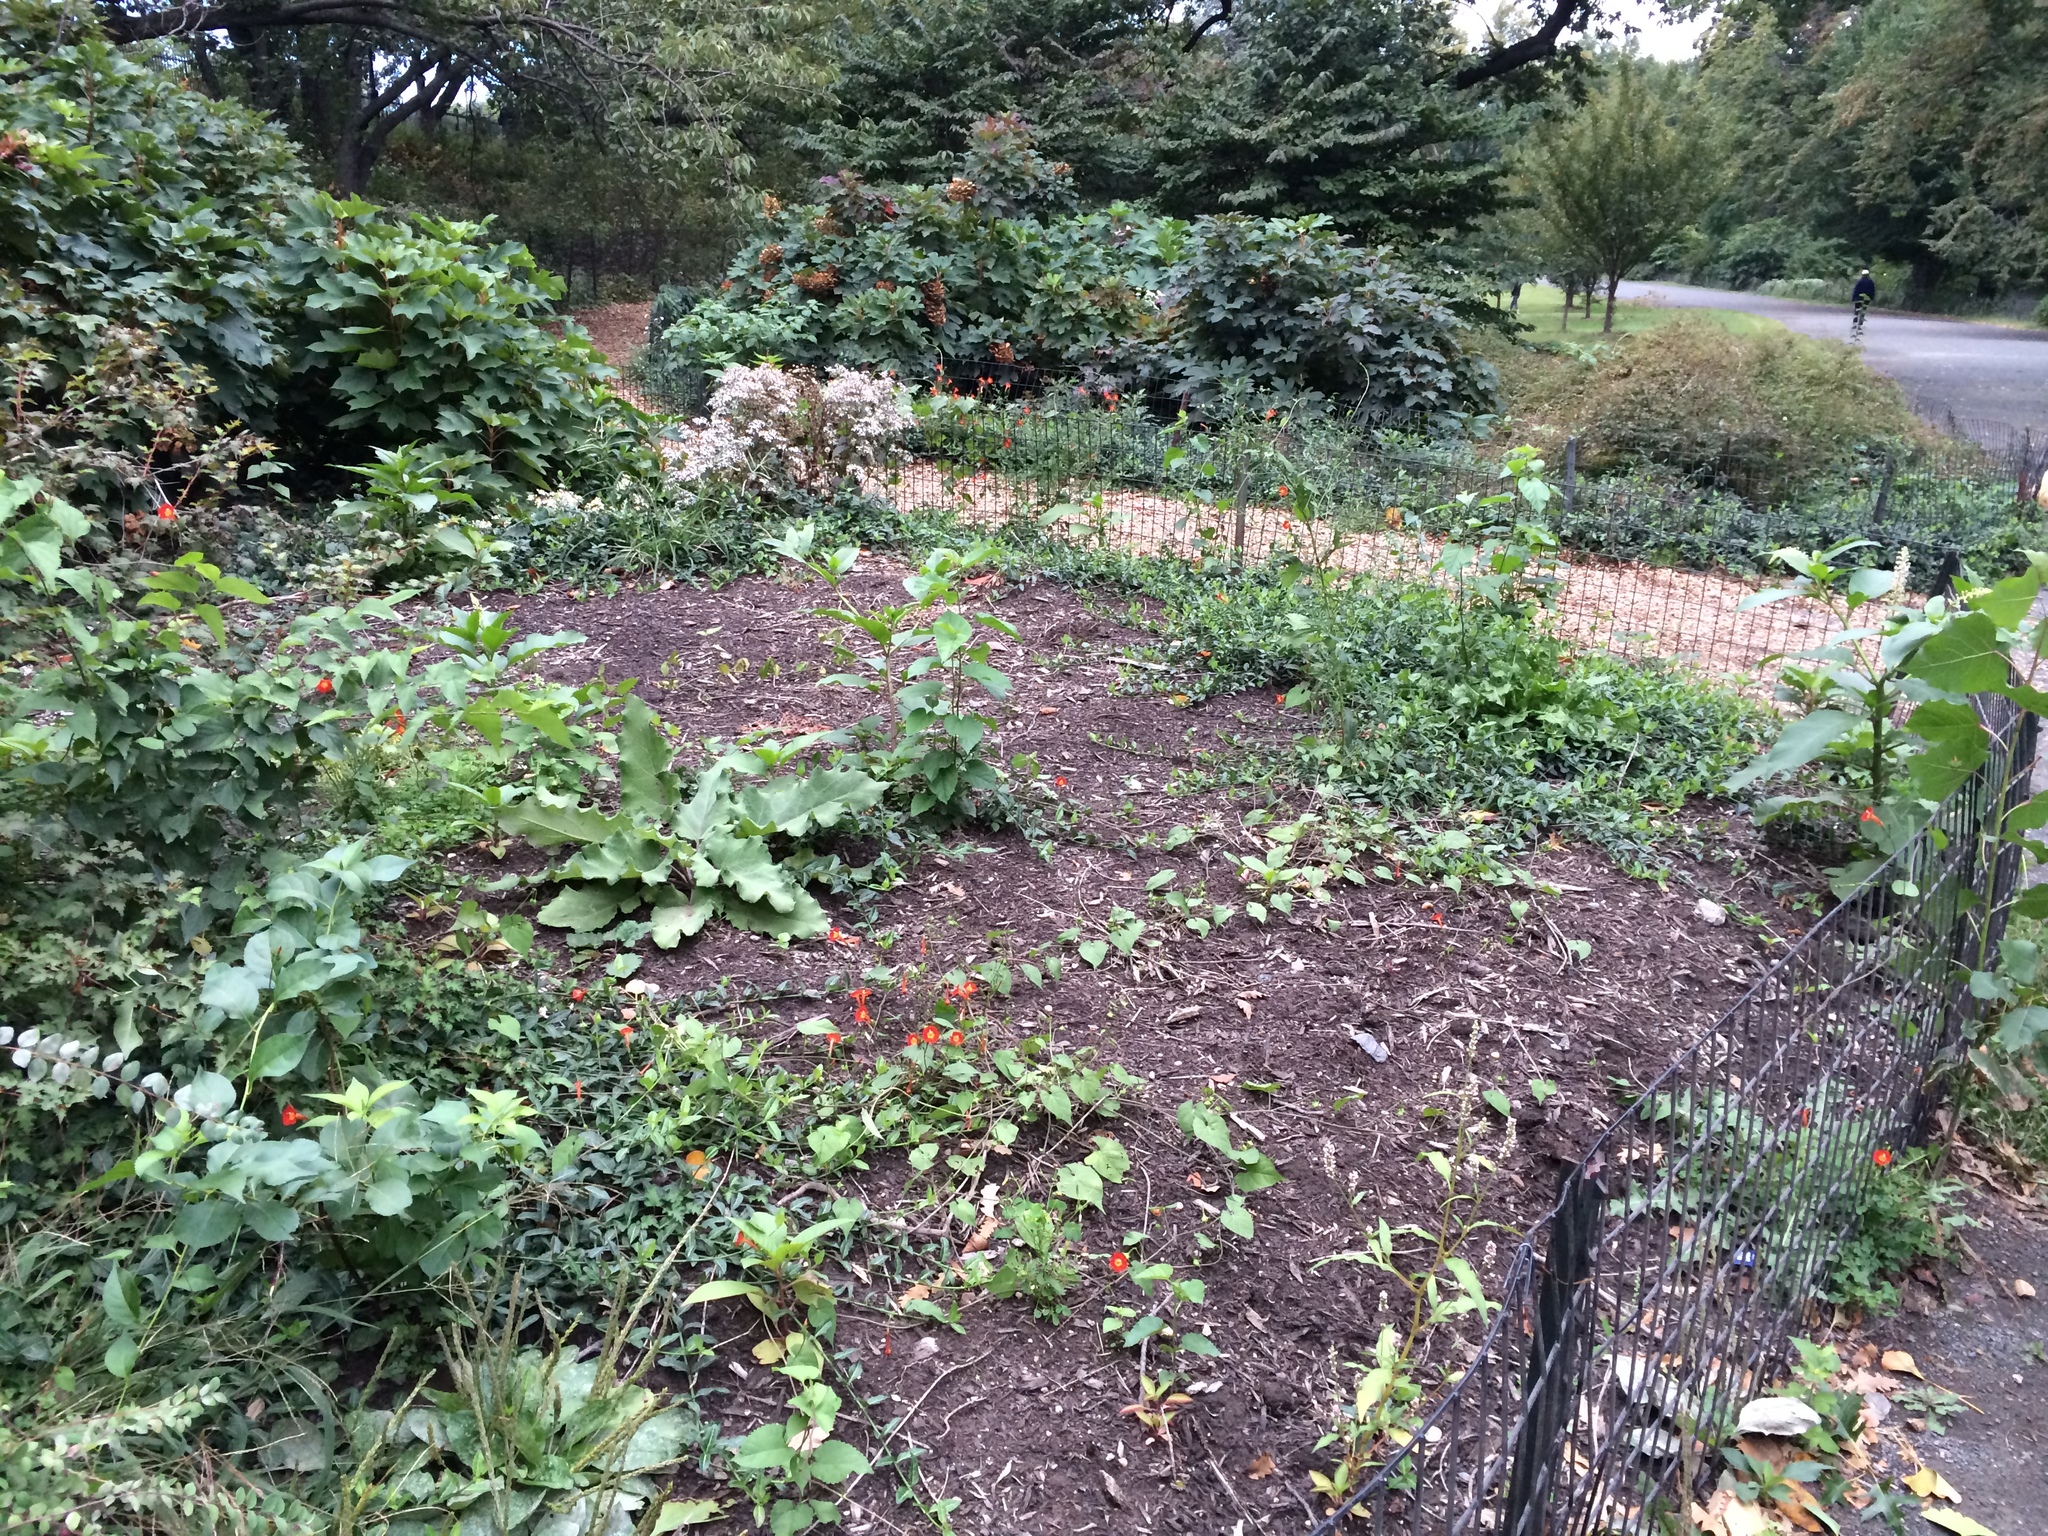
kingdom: Plantae
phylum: Tracheophyta
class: Magnoliopsida
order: Solanales
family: Convolvulaceae
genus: Ipomoea
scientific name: Ipomoea hederifolia
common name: Ivy-leaf morning-glory
